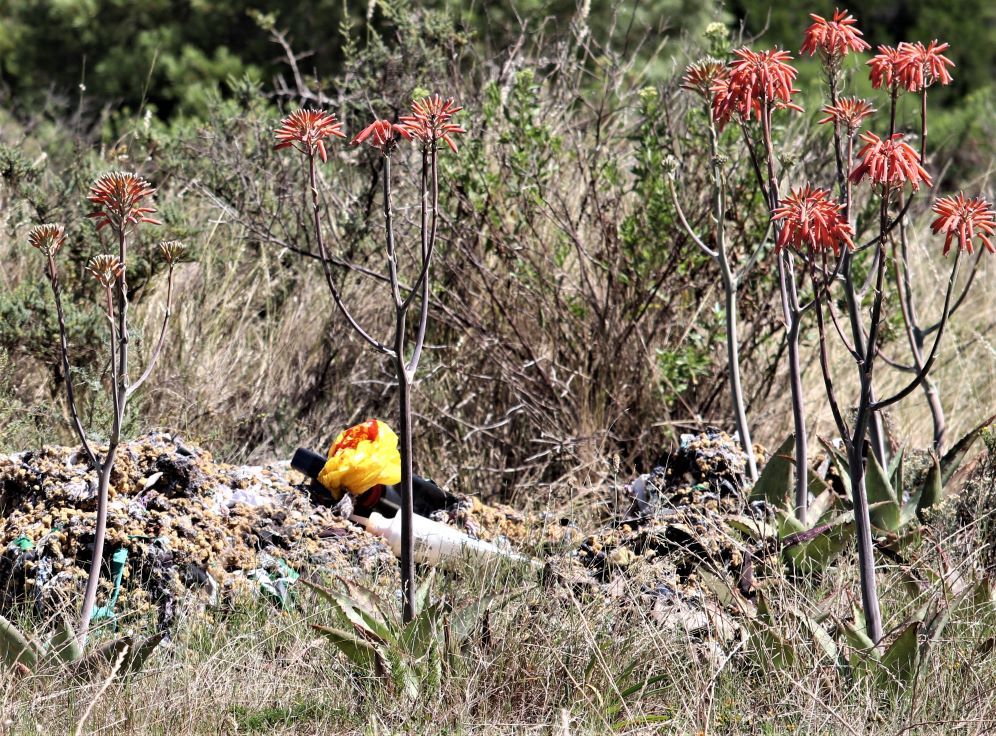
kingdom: Plantae
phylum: Tracheophyta
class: Liliopsida
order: Asparagales
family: Asphodelaceae
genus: Aloe
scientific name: Aloe maculata
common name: Broadleaf aloe
